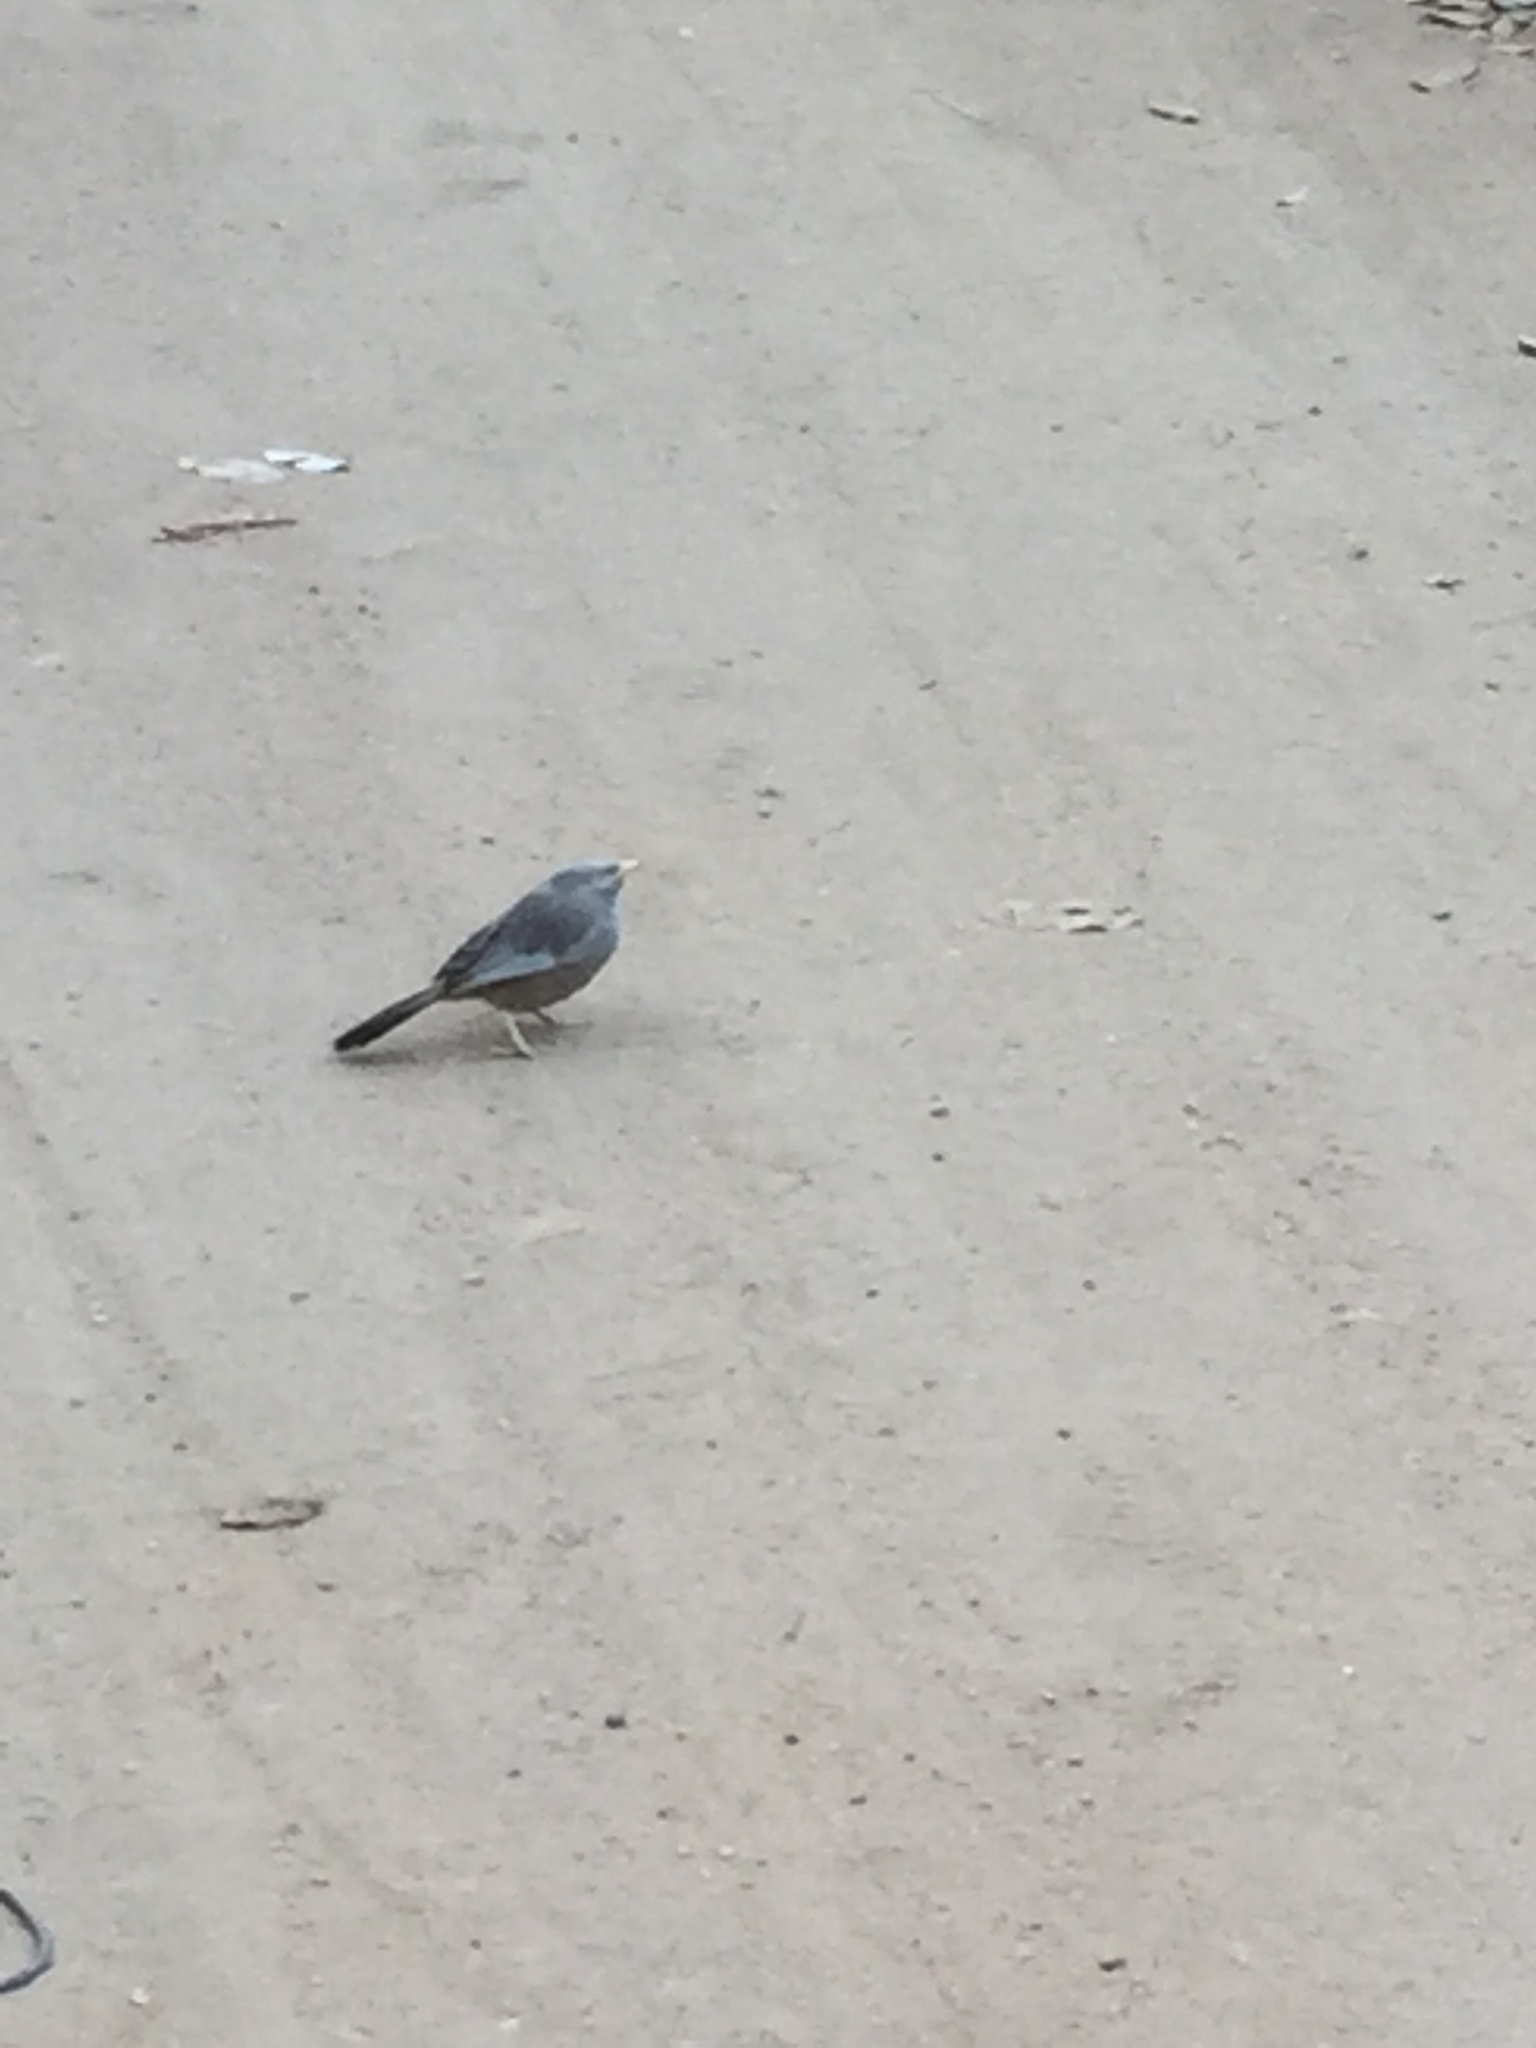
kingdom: Animalia
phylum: Chordata
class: Aves
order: Passeriformes
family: Leiothrichidae
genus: Turdoides
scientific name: Turdoides affinis
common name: Yellow-billed babbler
